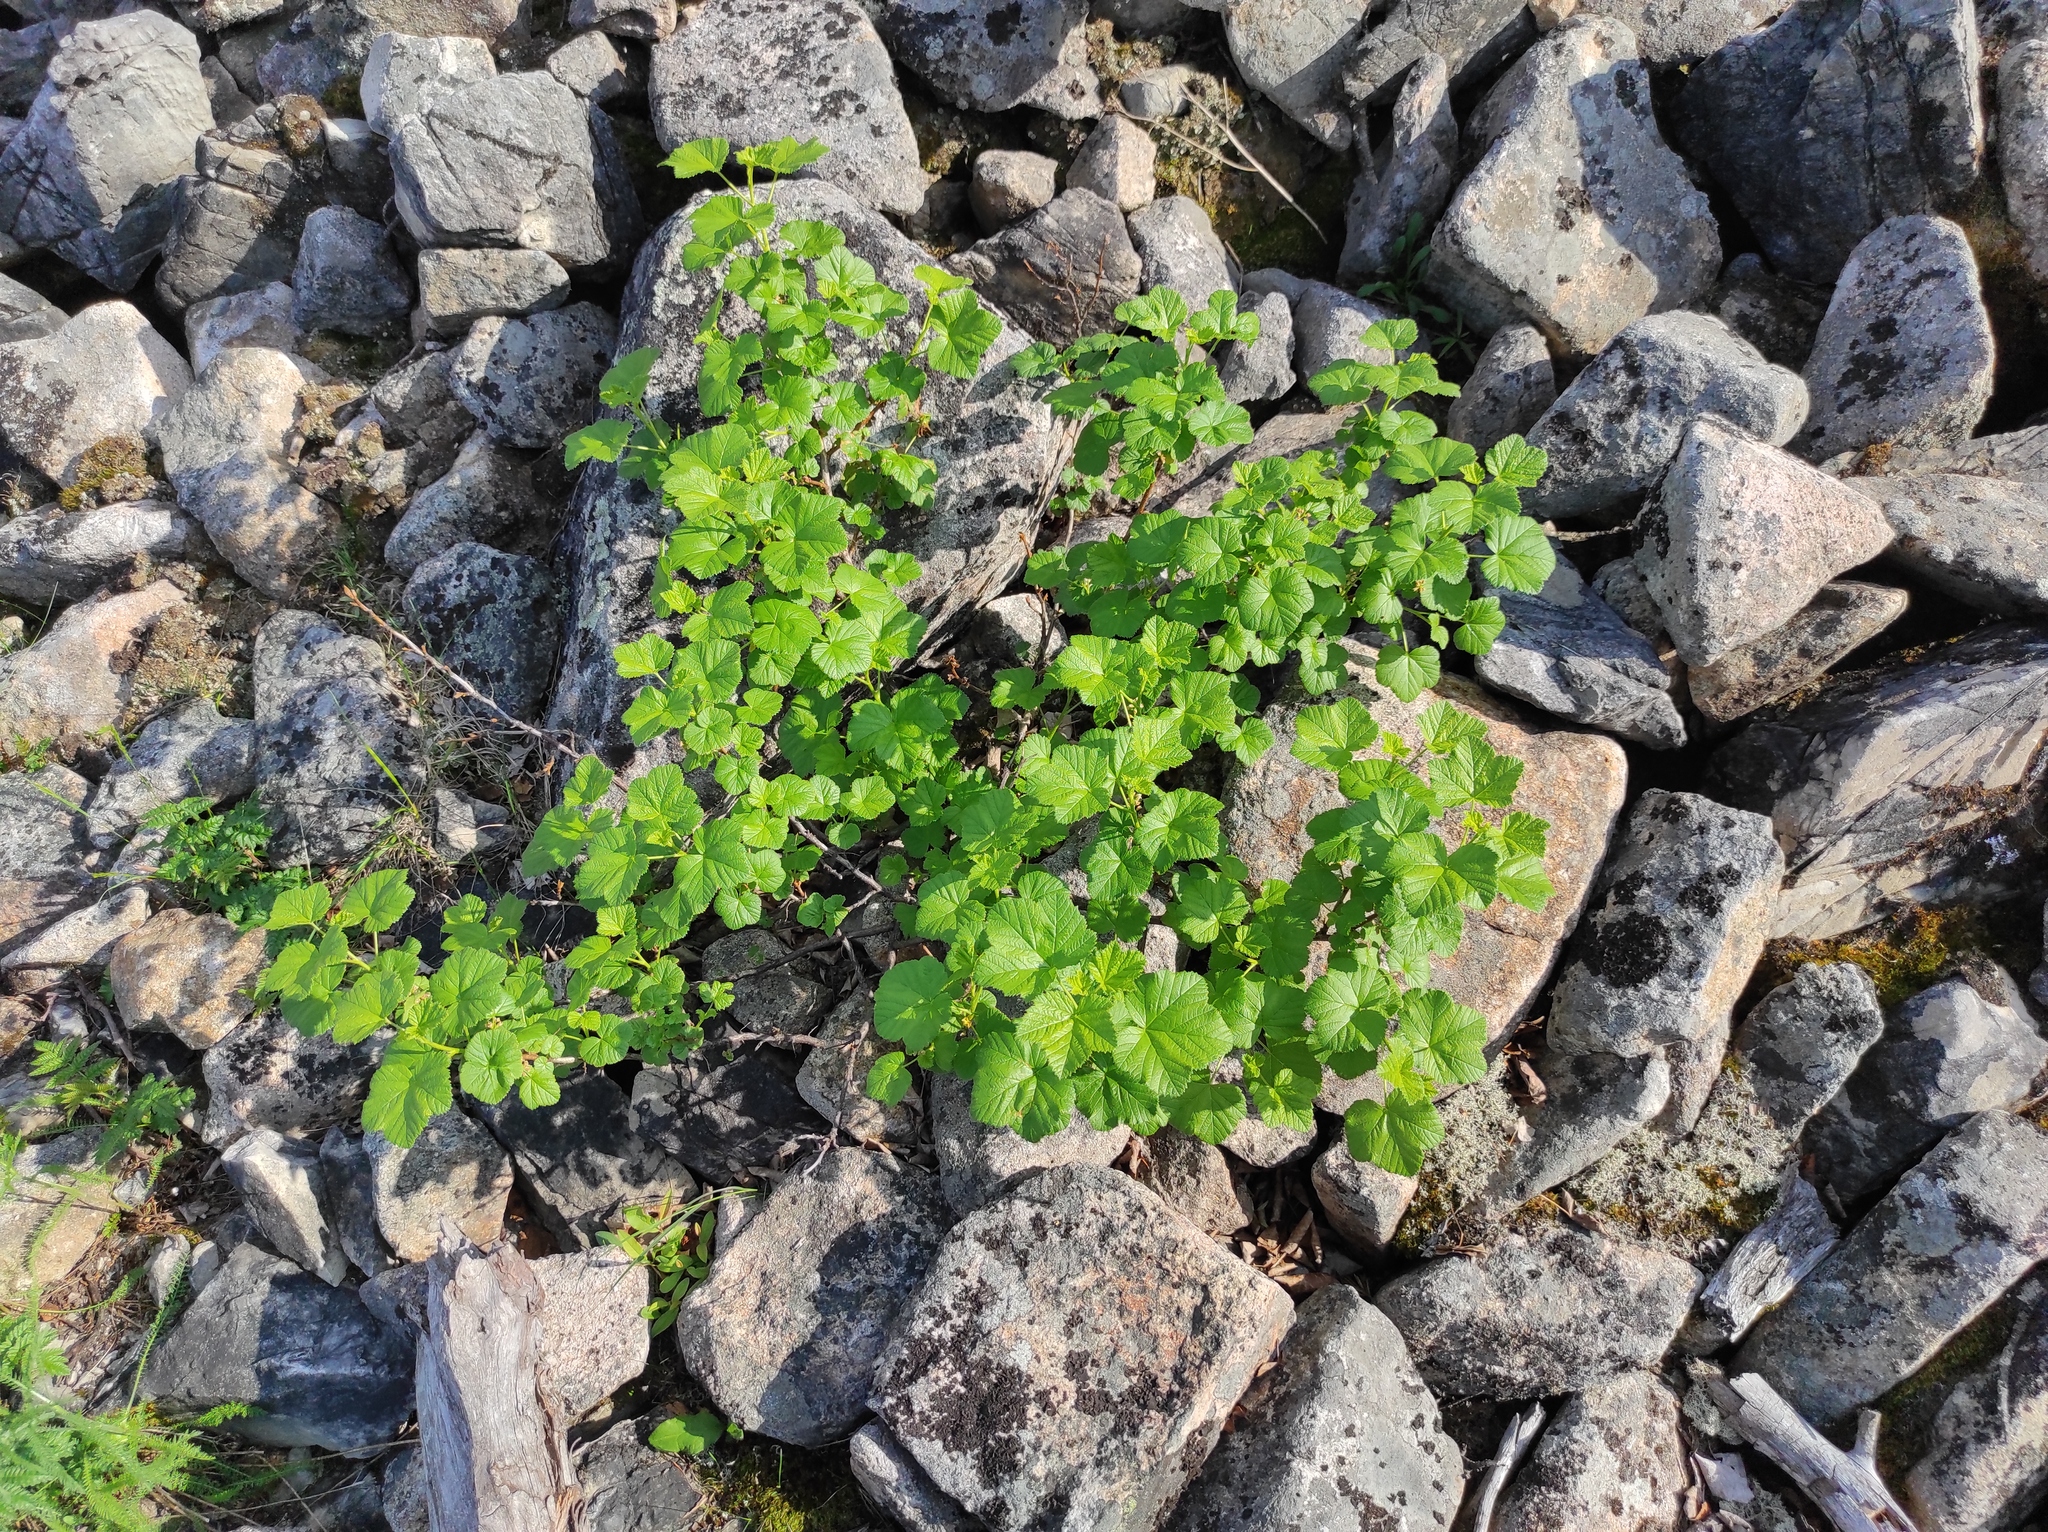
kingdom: Plantae
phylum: Tracheophyta
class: Magnoliopsida
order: Saxifragales
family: Grossulariaceae
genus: Ribes
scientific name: Ribes fragrans
